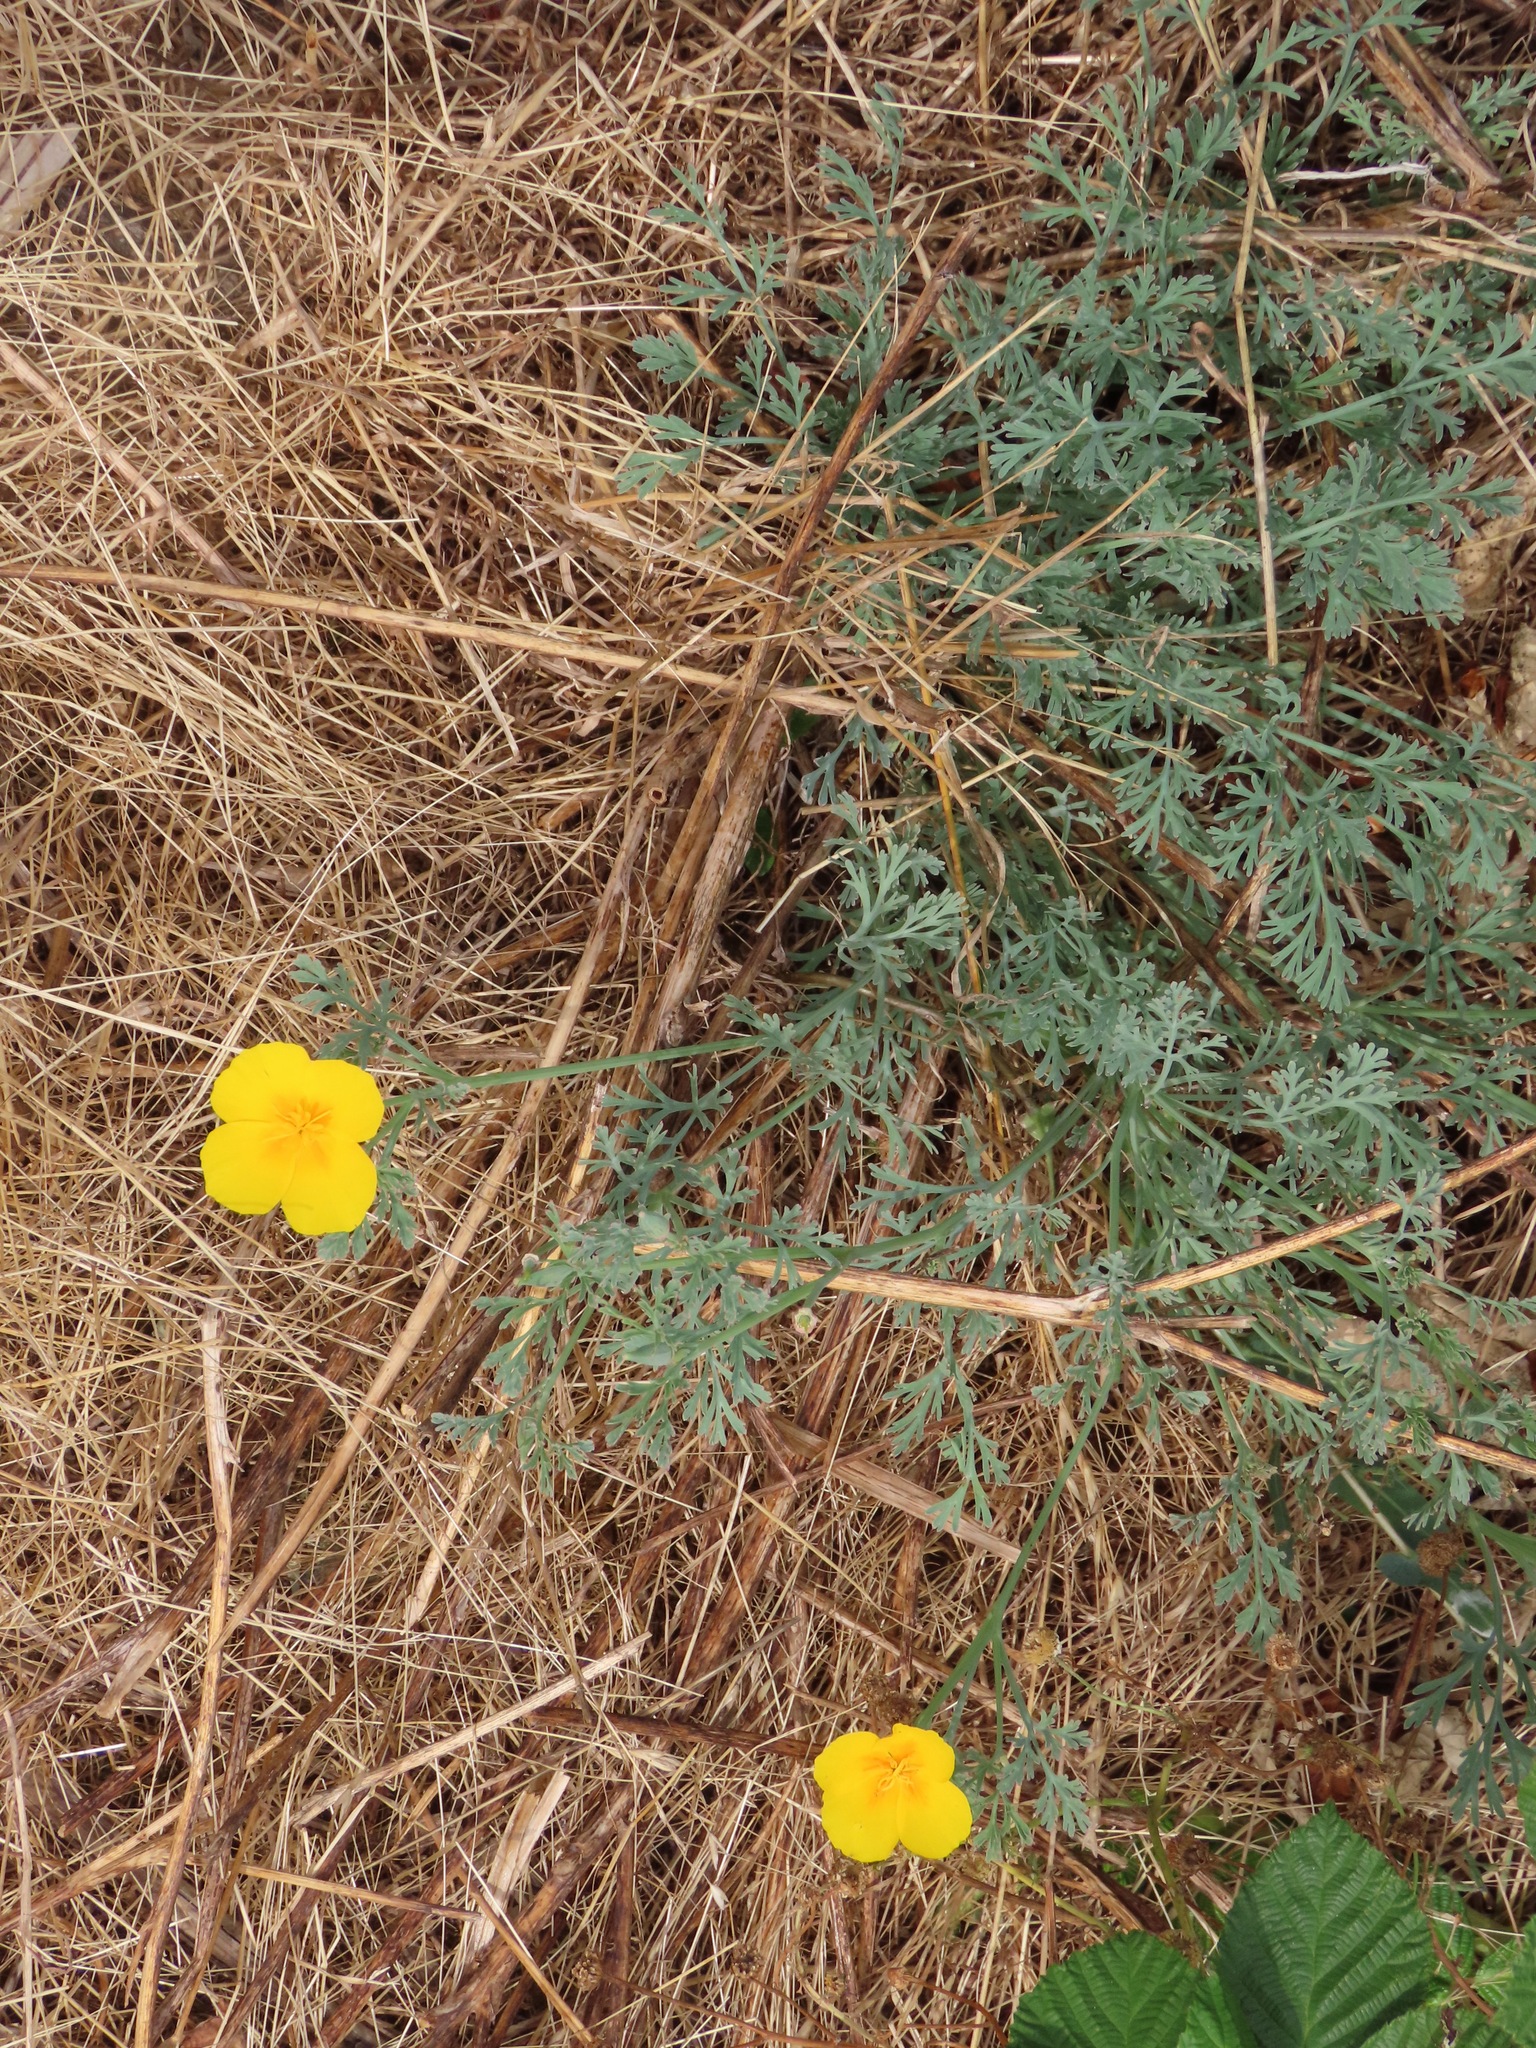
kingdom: Plantae
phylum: Tracheophyta
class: Magnoliopsida
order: Ranunculales
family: Papaveraceae
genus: Eschscholzia
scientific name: Eschscholzia californica
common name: California poppy
